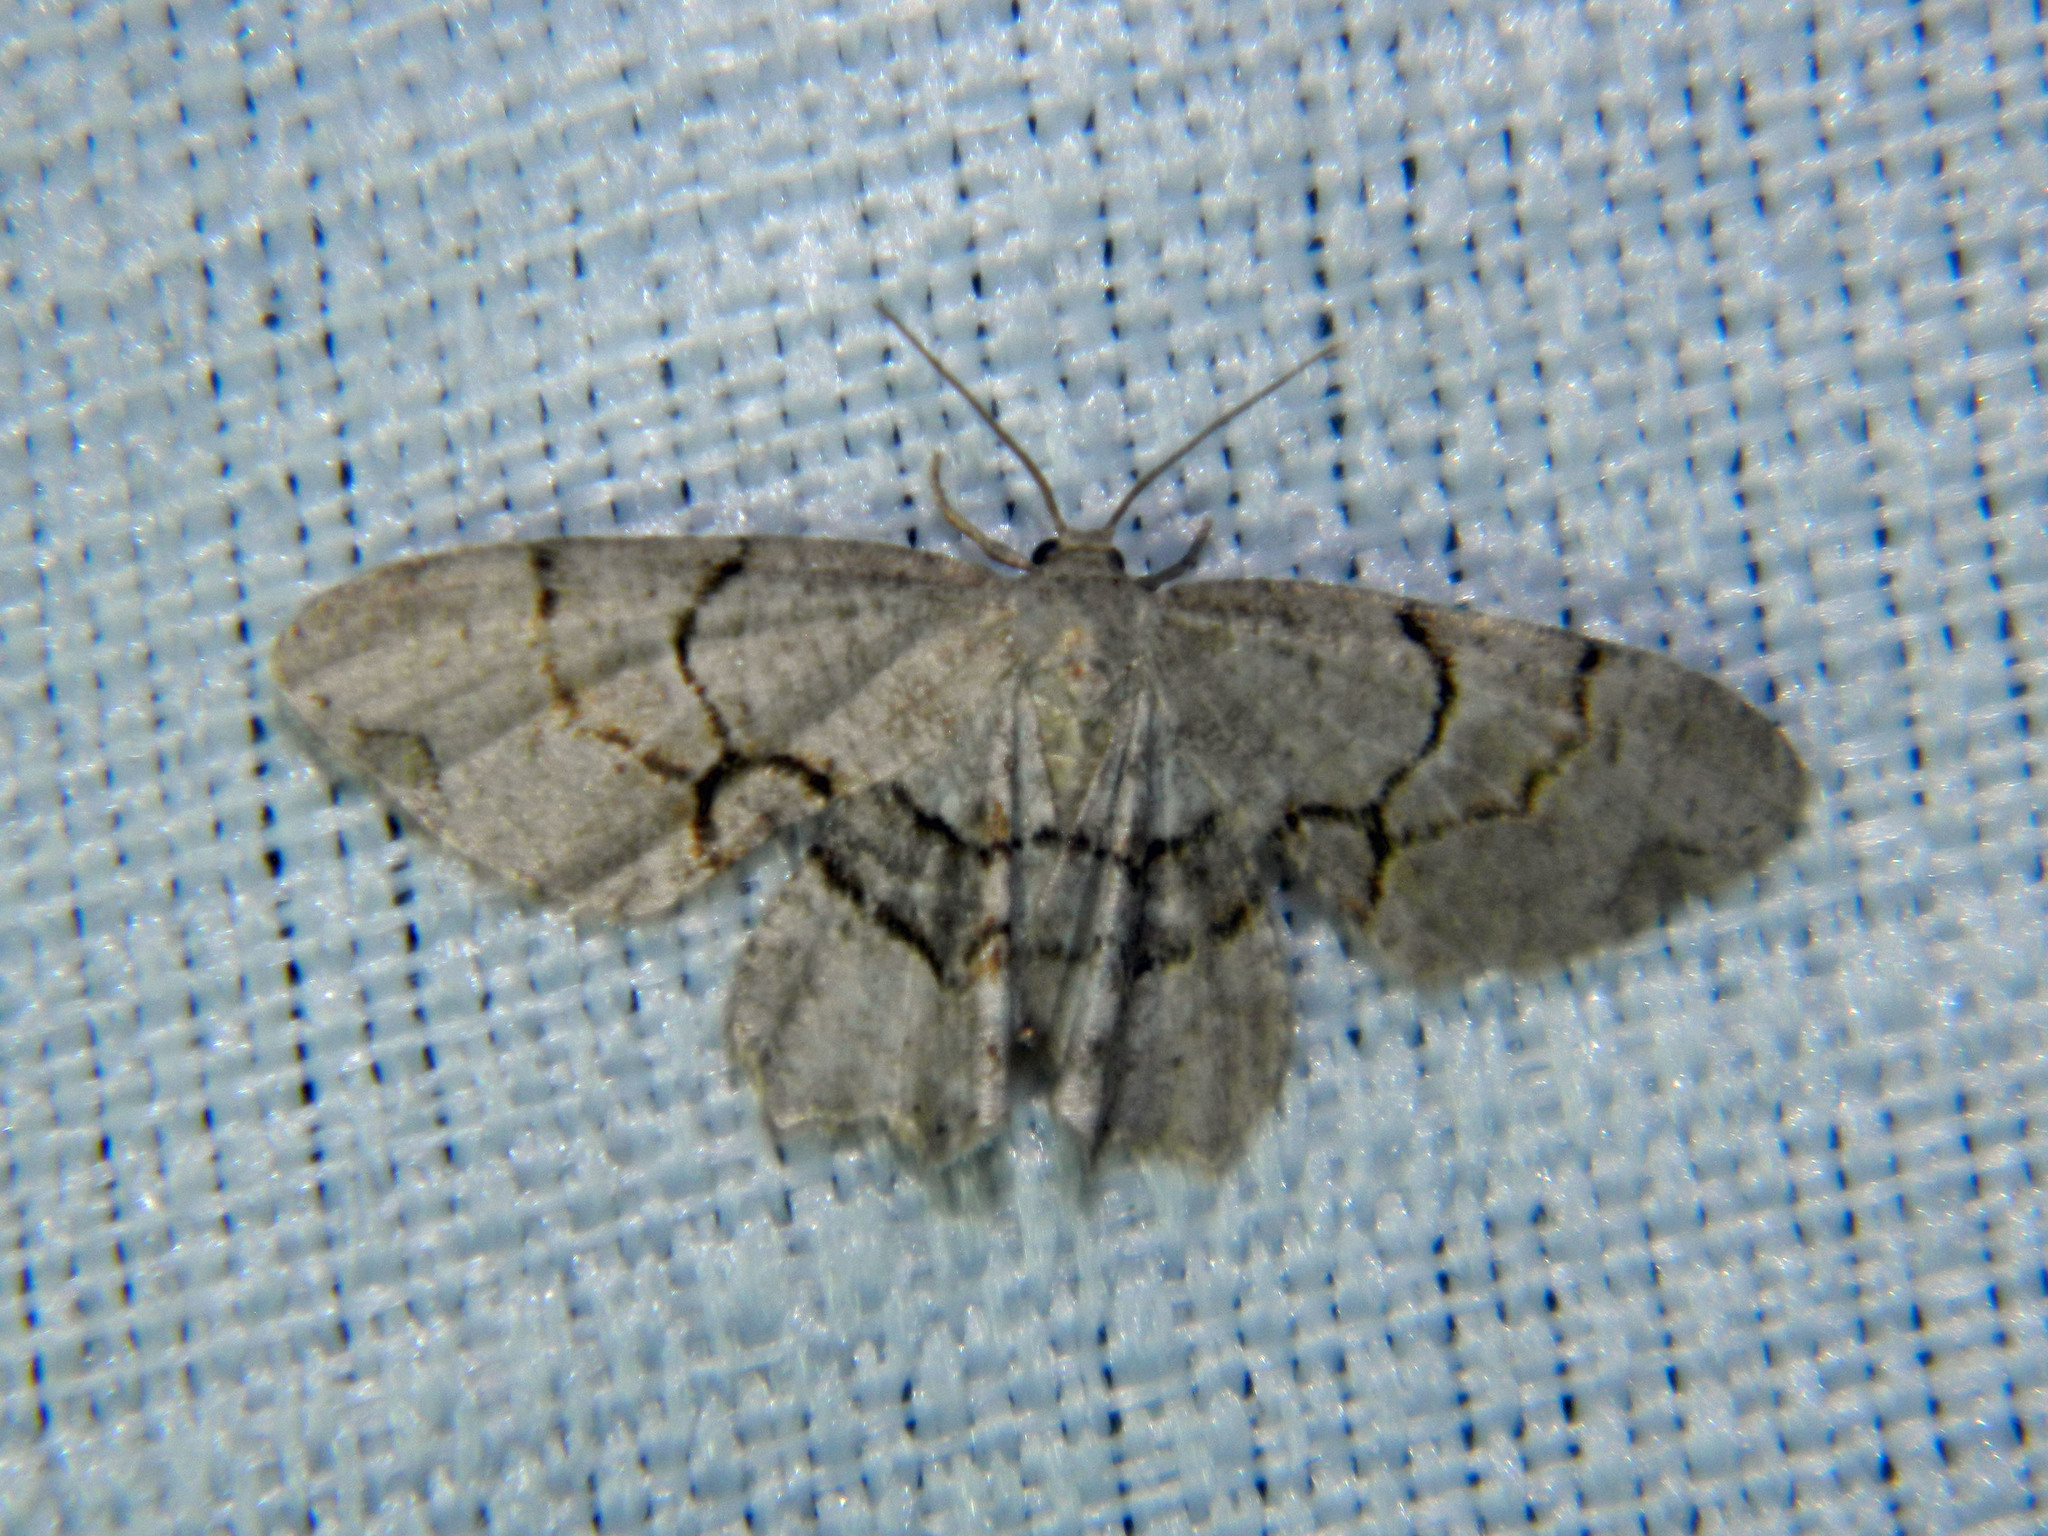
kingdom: Animalia
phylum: Arthropoda
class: Insecta
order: Lepidoptera
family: Uraniidae
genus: Epiplema
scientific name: Epiplema Callizzia amorata
